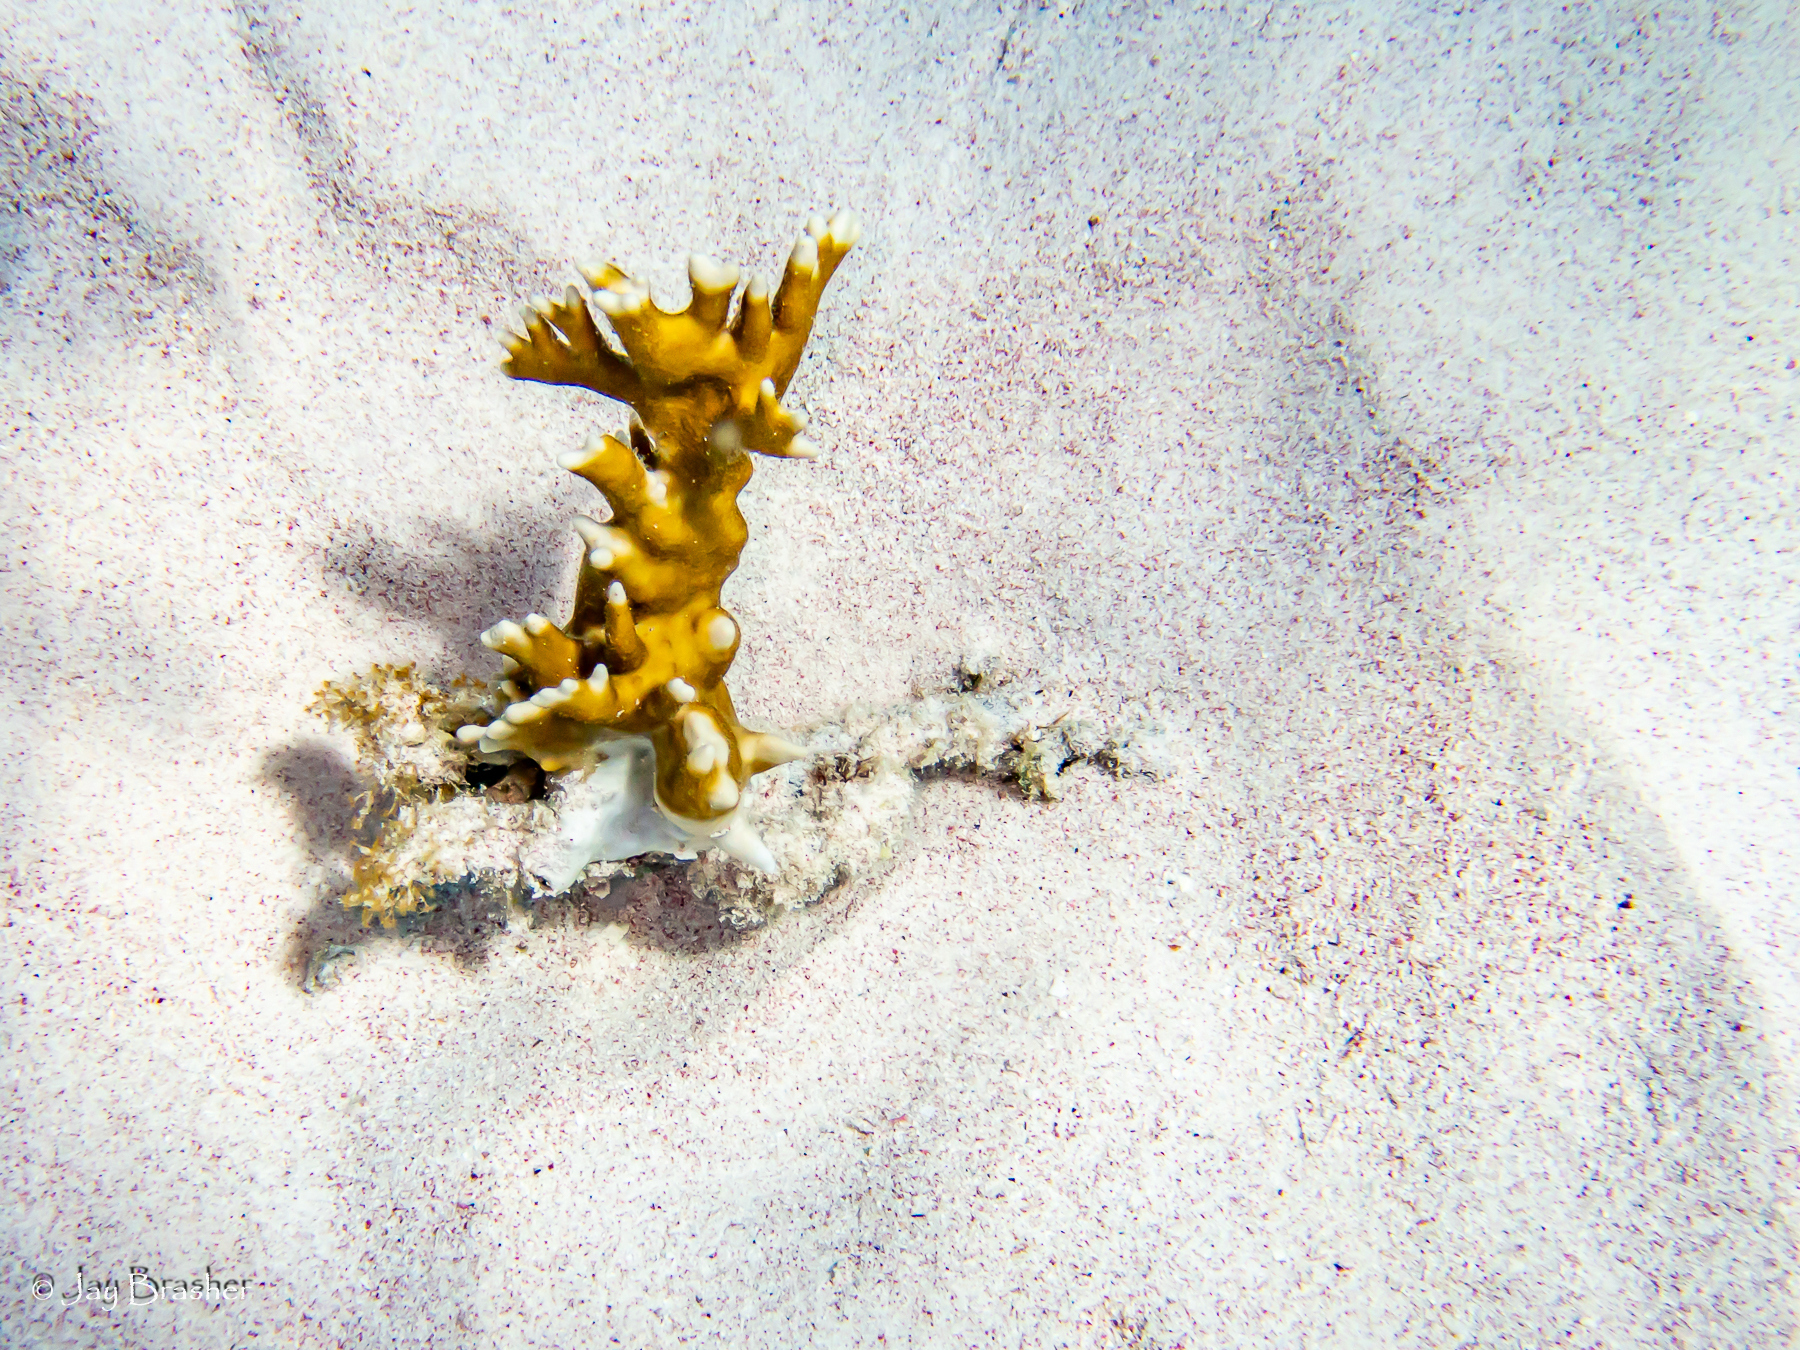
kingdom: Animalia
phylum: Cnidaria
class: Hydrozoa
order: Anthoathecata
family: Milleporidae
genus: Millepora
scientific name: Millepora alcicornis
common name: Branching fire coral
